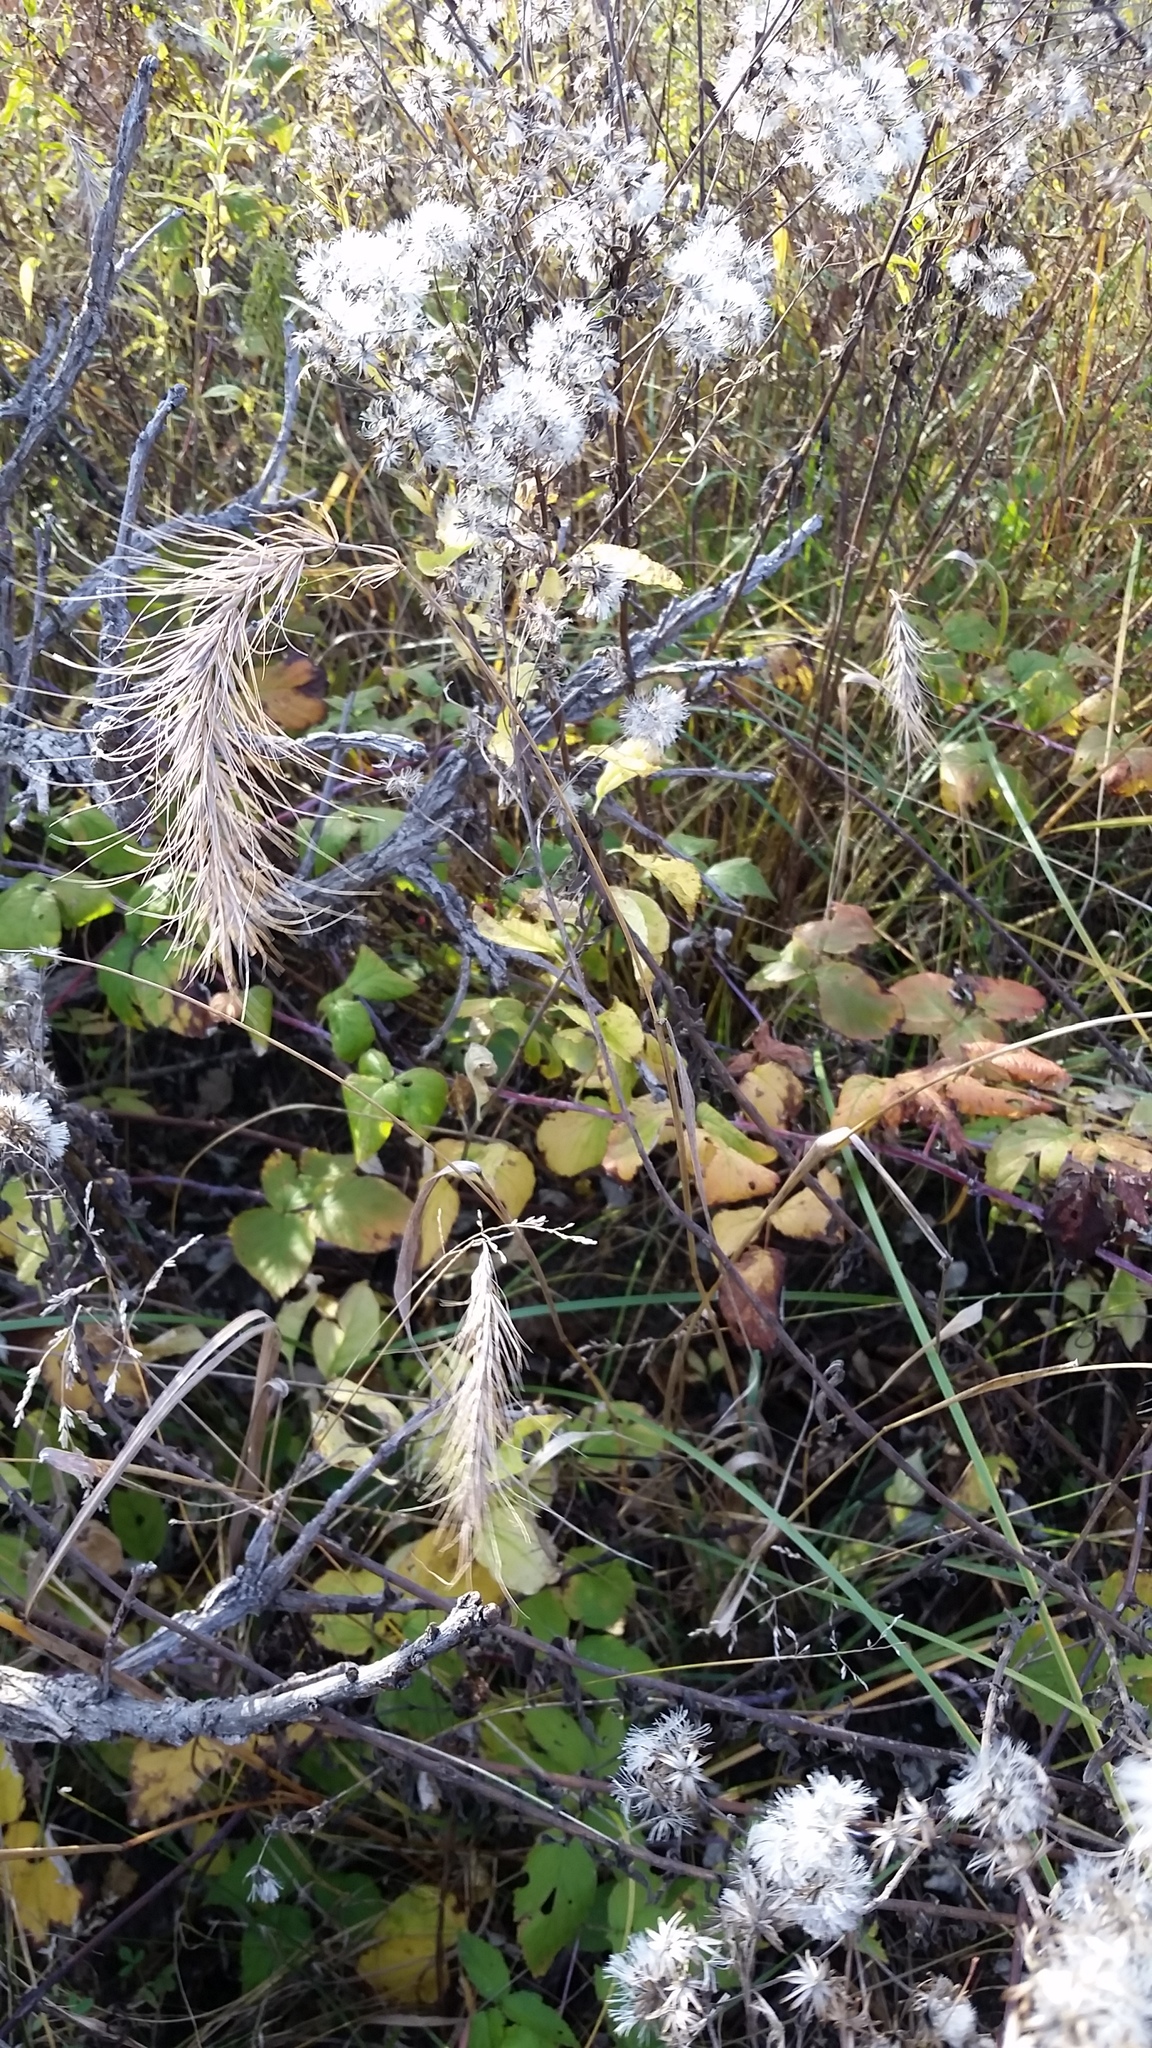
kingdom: Plantae
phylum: Tracheophyta
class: Liliopsida
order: Poales
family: Poaceae
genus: Elymus
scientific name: Elymus canadensis
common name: Canada wild rye
